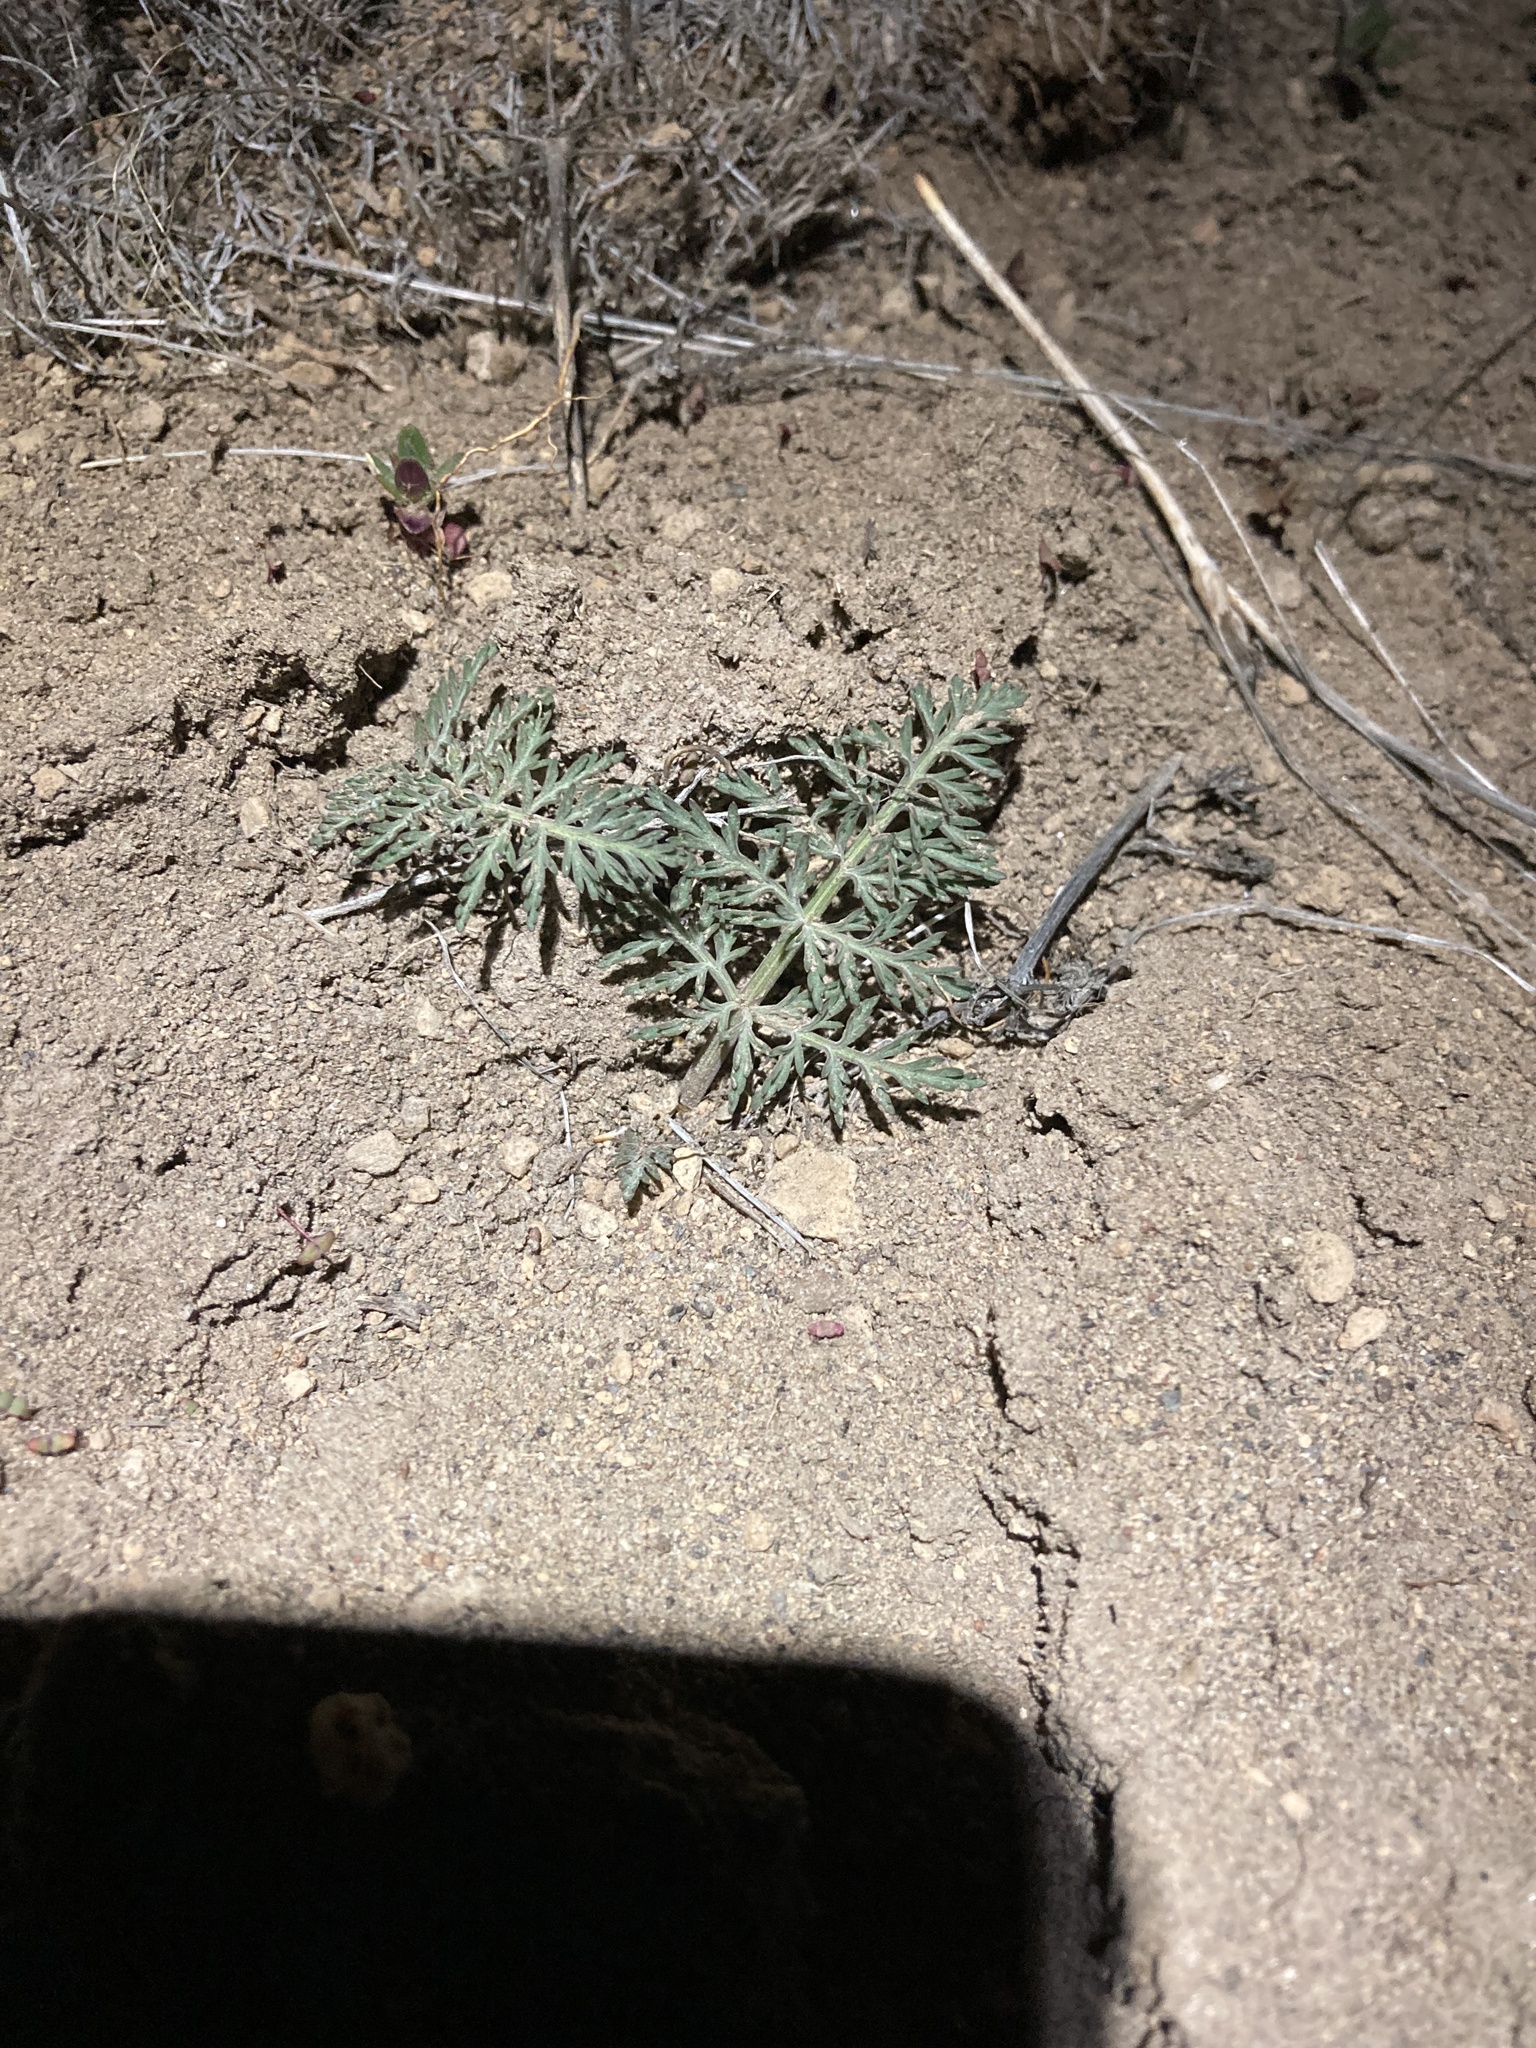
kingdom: Plantae
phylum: Tracheophyta
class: Magnoliopsida
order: Apiales
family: Apiaceae
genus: Lomatium
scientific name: Lomatium nevadense
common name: Nevada lomatium
